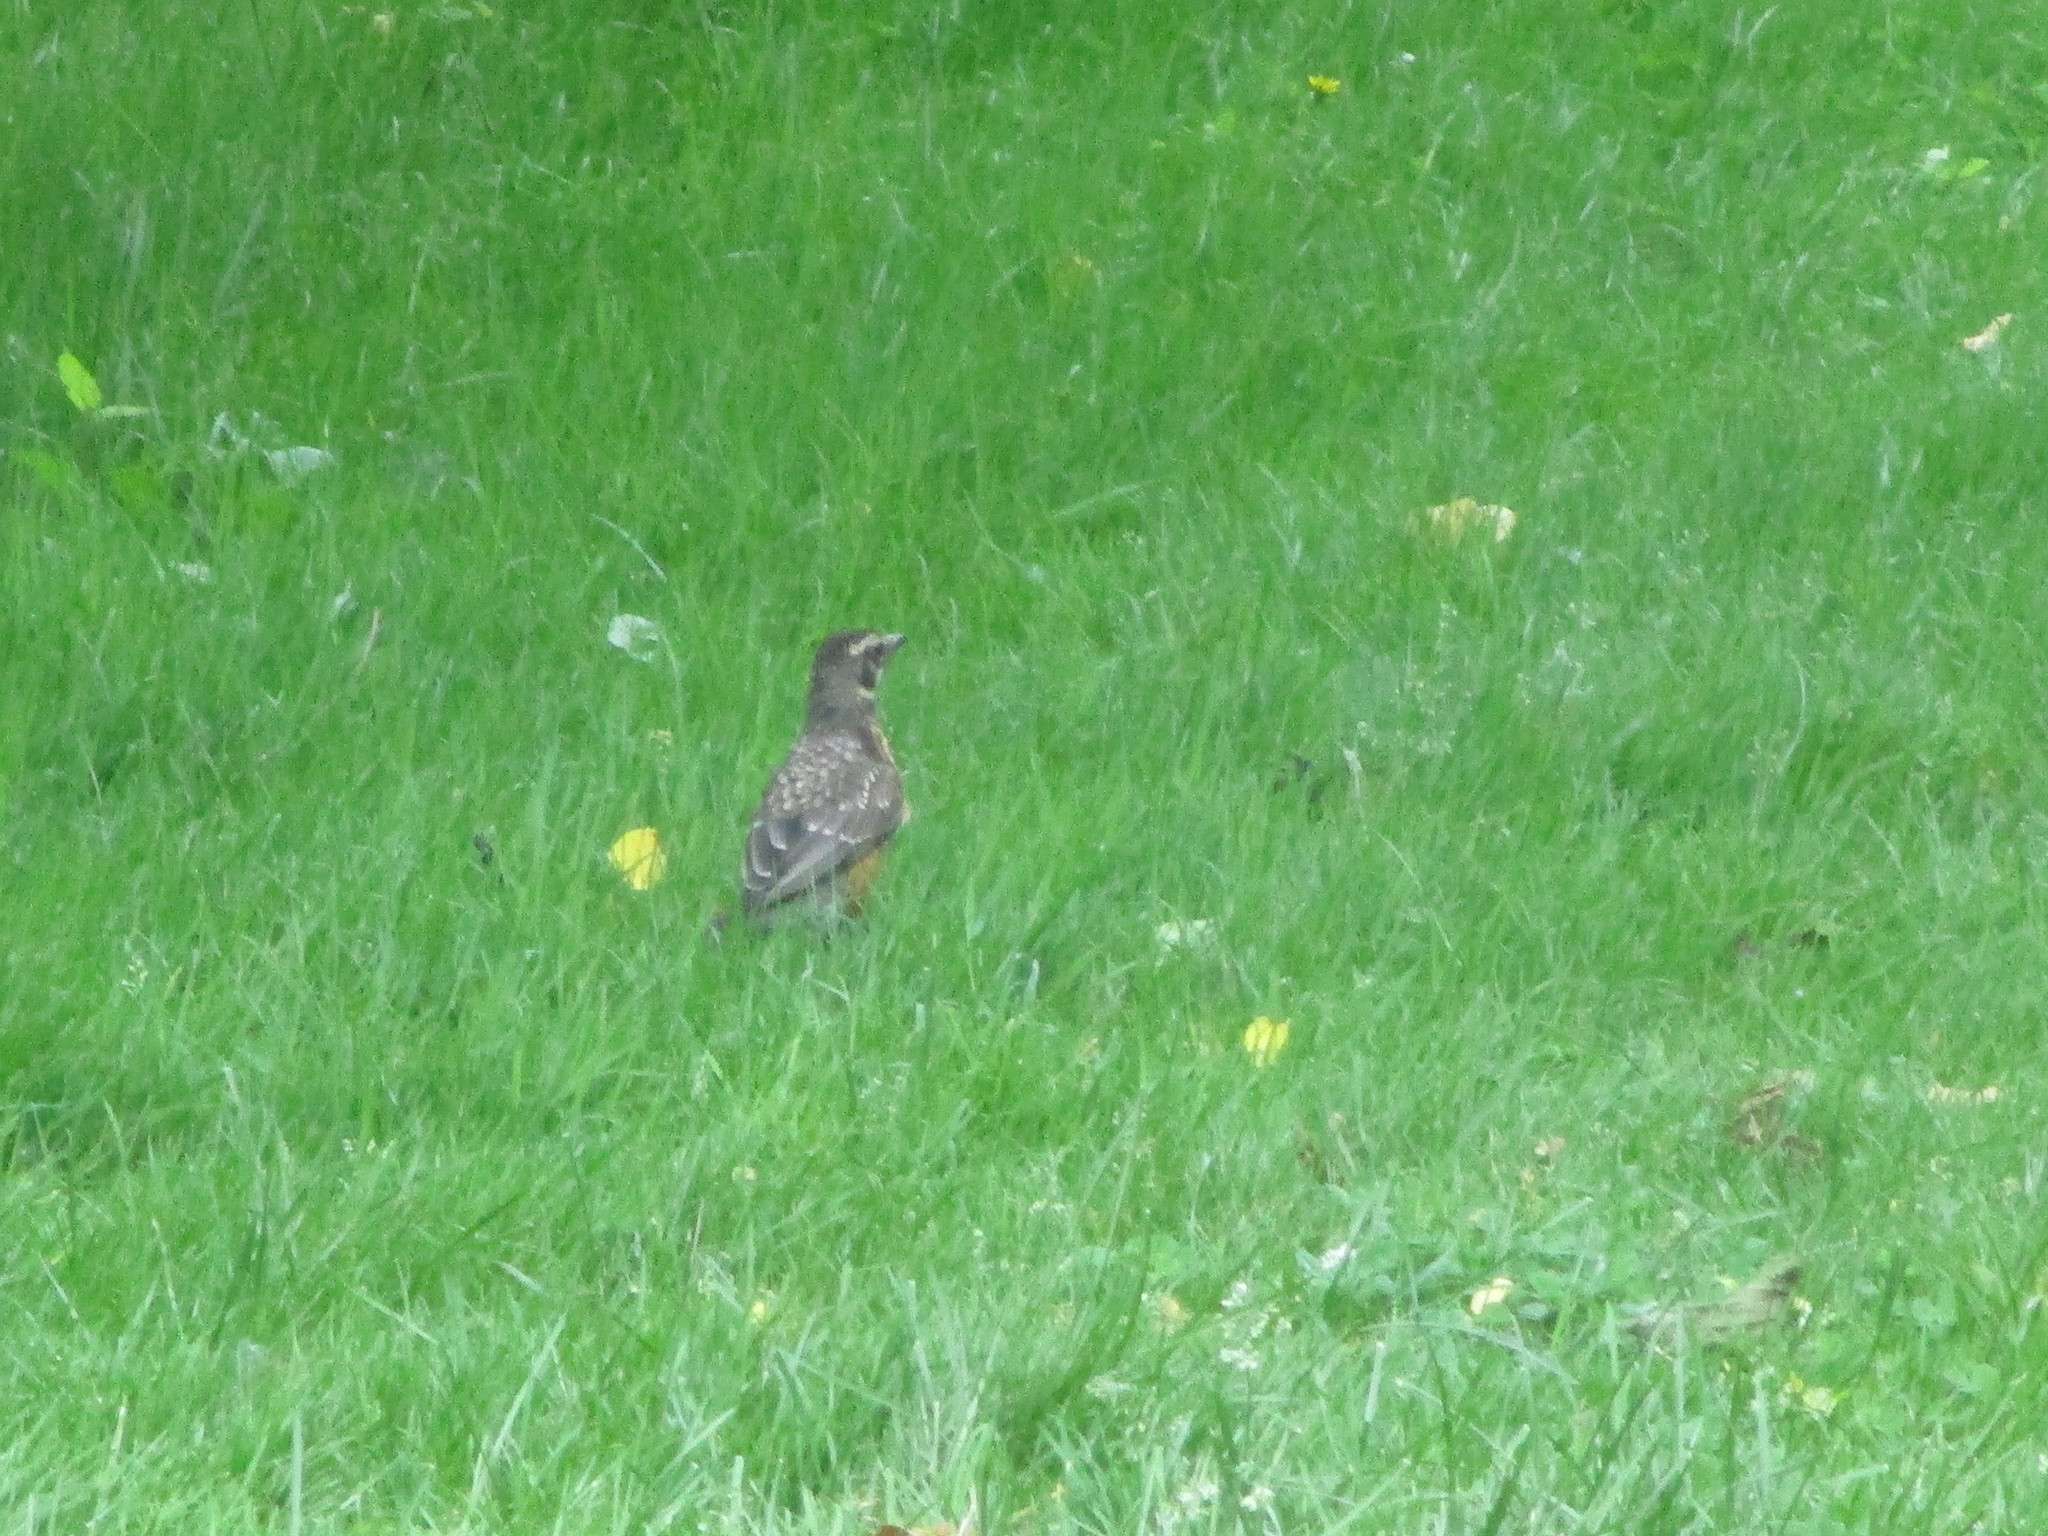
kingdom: Animalia
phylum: Chordata
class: Aves
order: Passeriformes
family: Turdidae
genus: Turdus
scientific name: Turdus migratorius
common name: American robin
